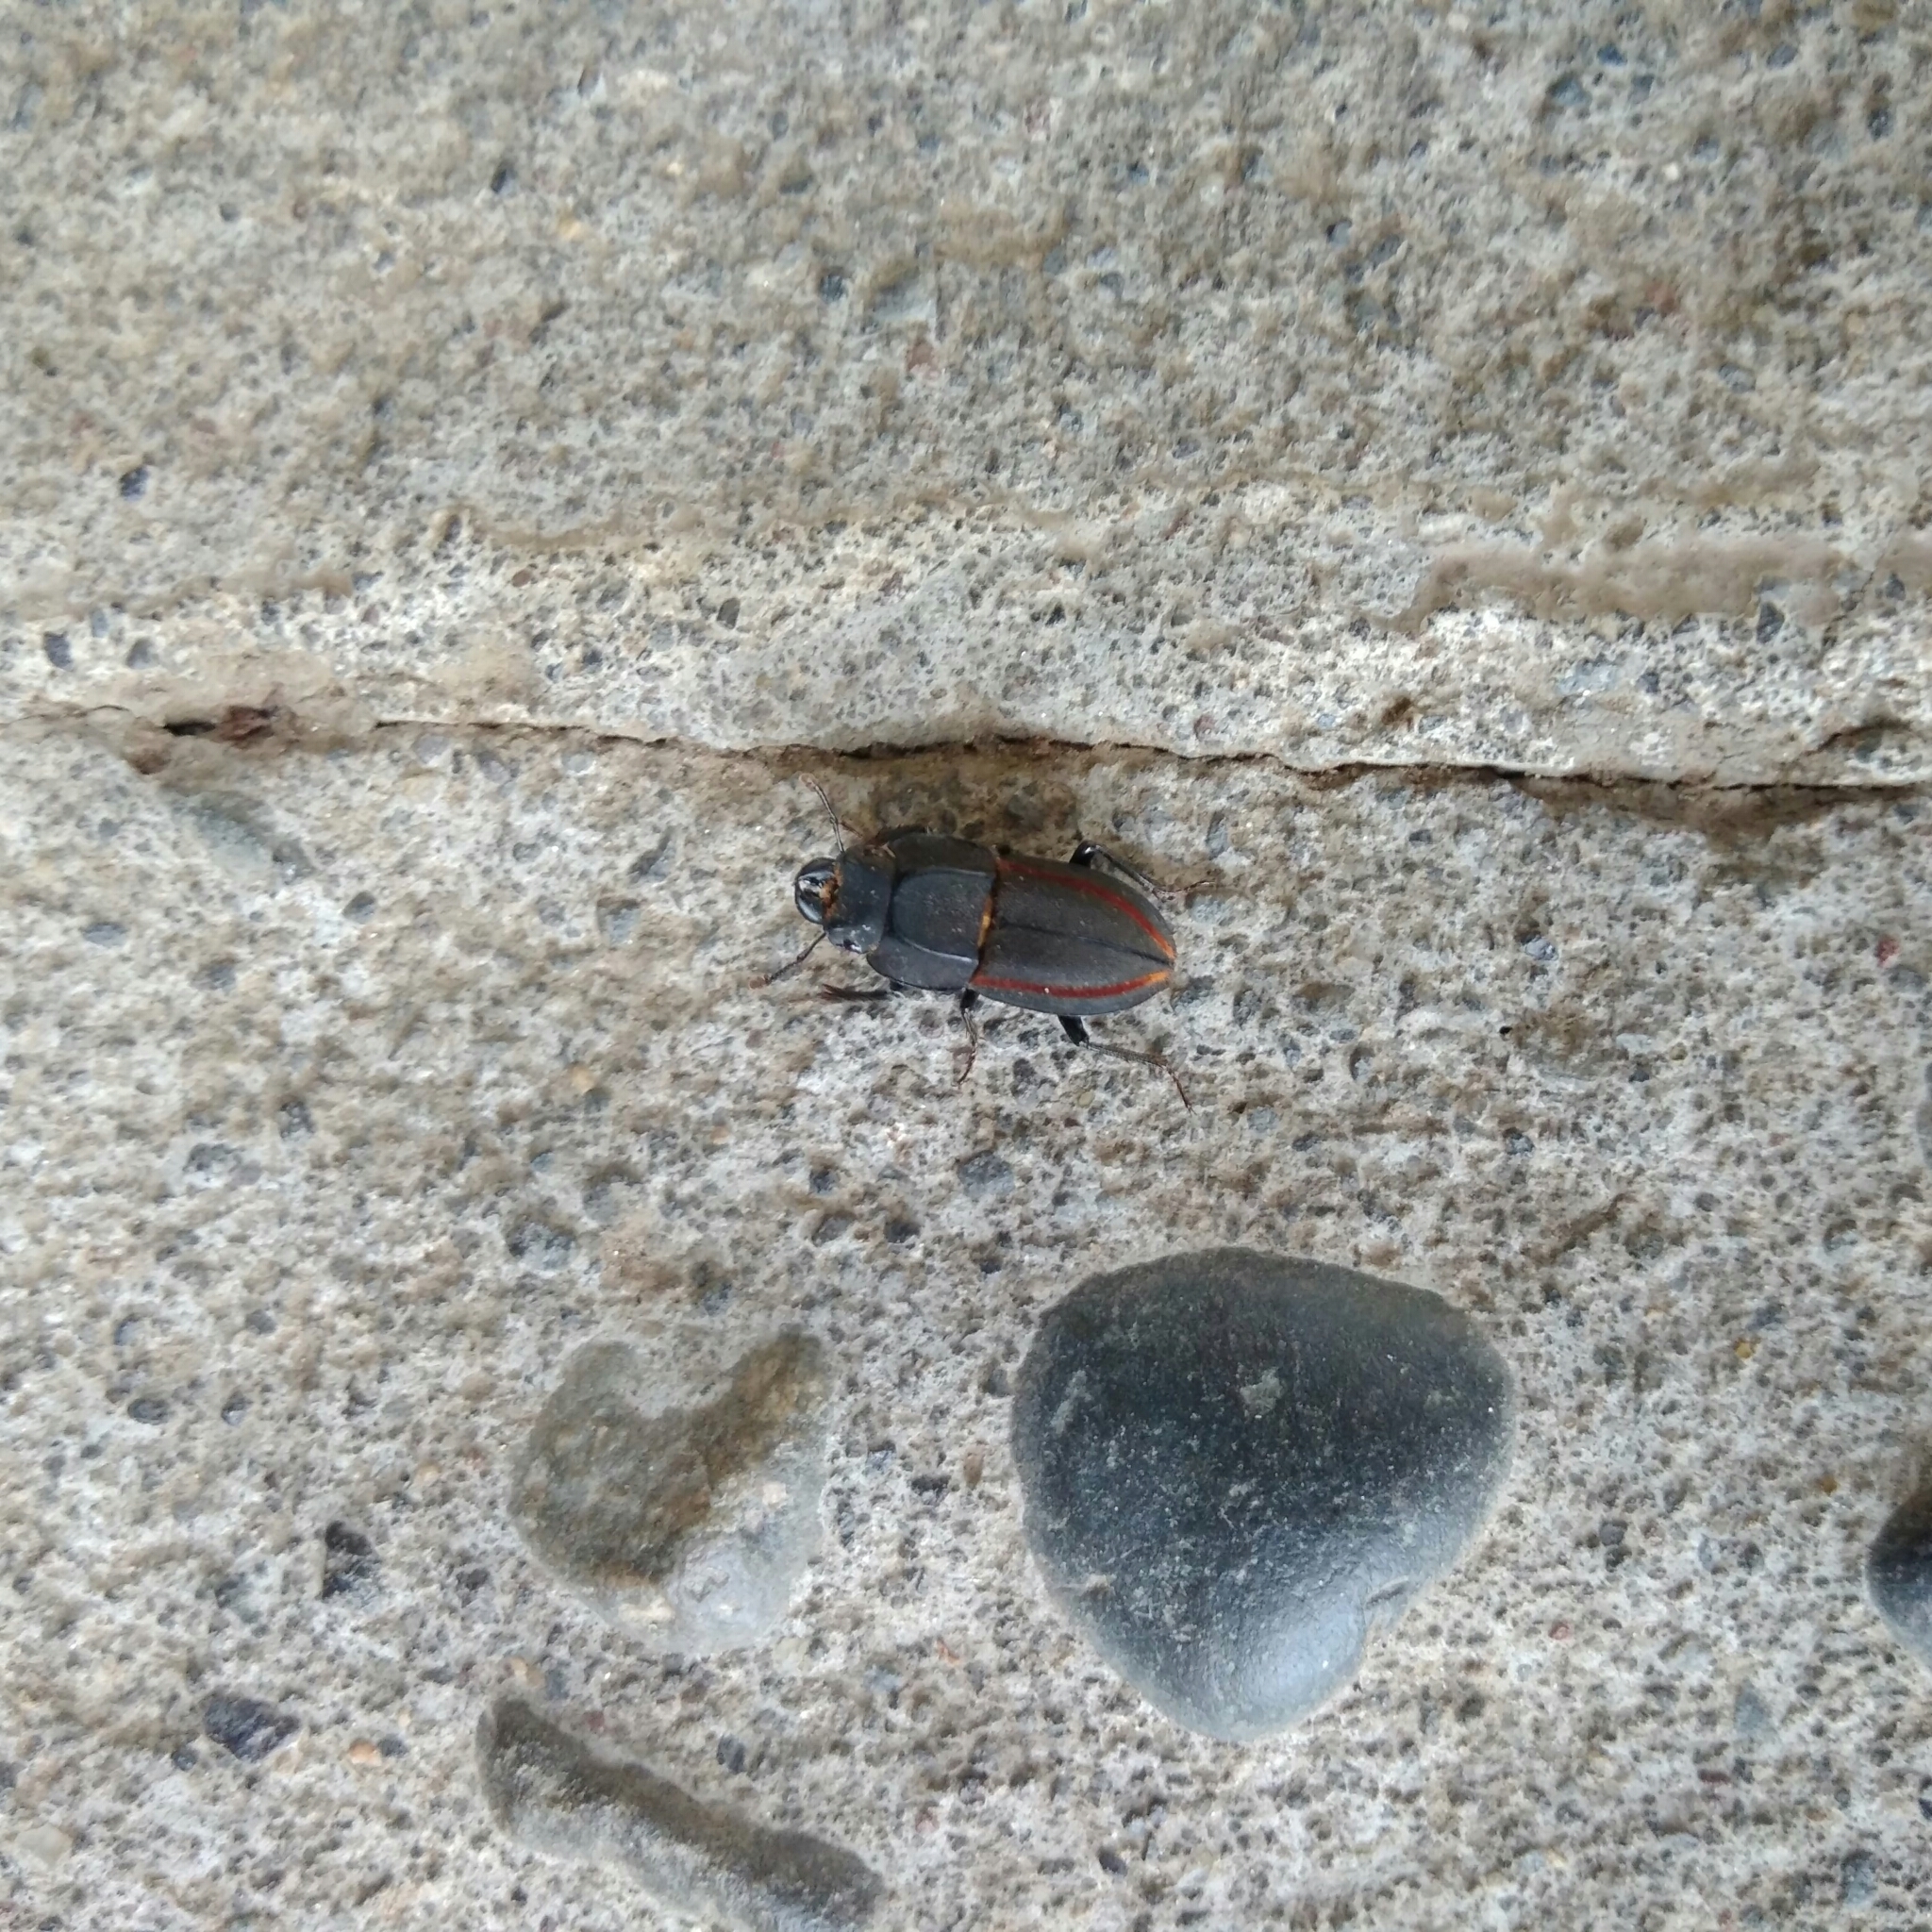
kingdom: Animalia
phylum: Arthropoda
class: Insecta
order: Coleoptera
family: Lucanidae
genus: Erichius
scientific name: Erichius vittatus
